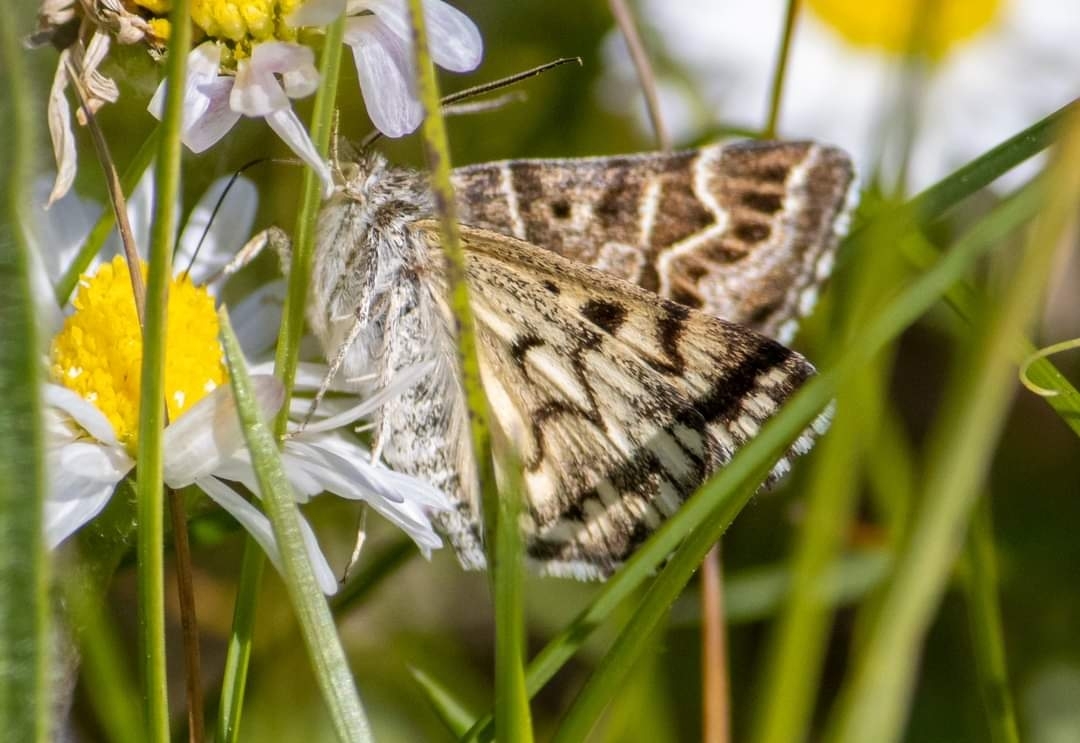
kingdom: Animalia
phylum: Arthropoda
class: Insecta
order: Lepidoptera
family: Erebidae
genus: Callistege
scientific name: Callistege mi
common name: Mother shipton
